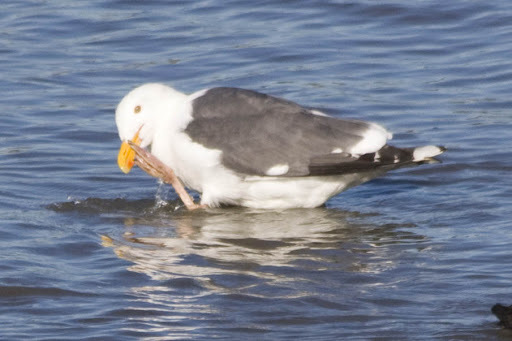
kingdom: Animalia
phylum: Chordata
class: Aves
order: Charadriiformes
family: Laridae
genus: Larus
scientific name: Larus occidentalis
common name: Western gull
